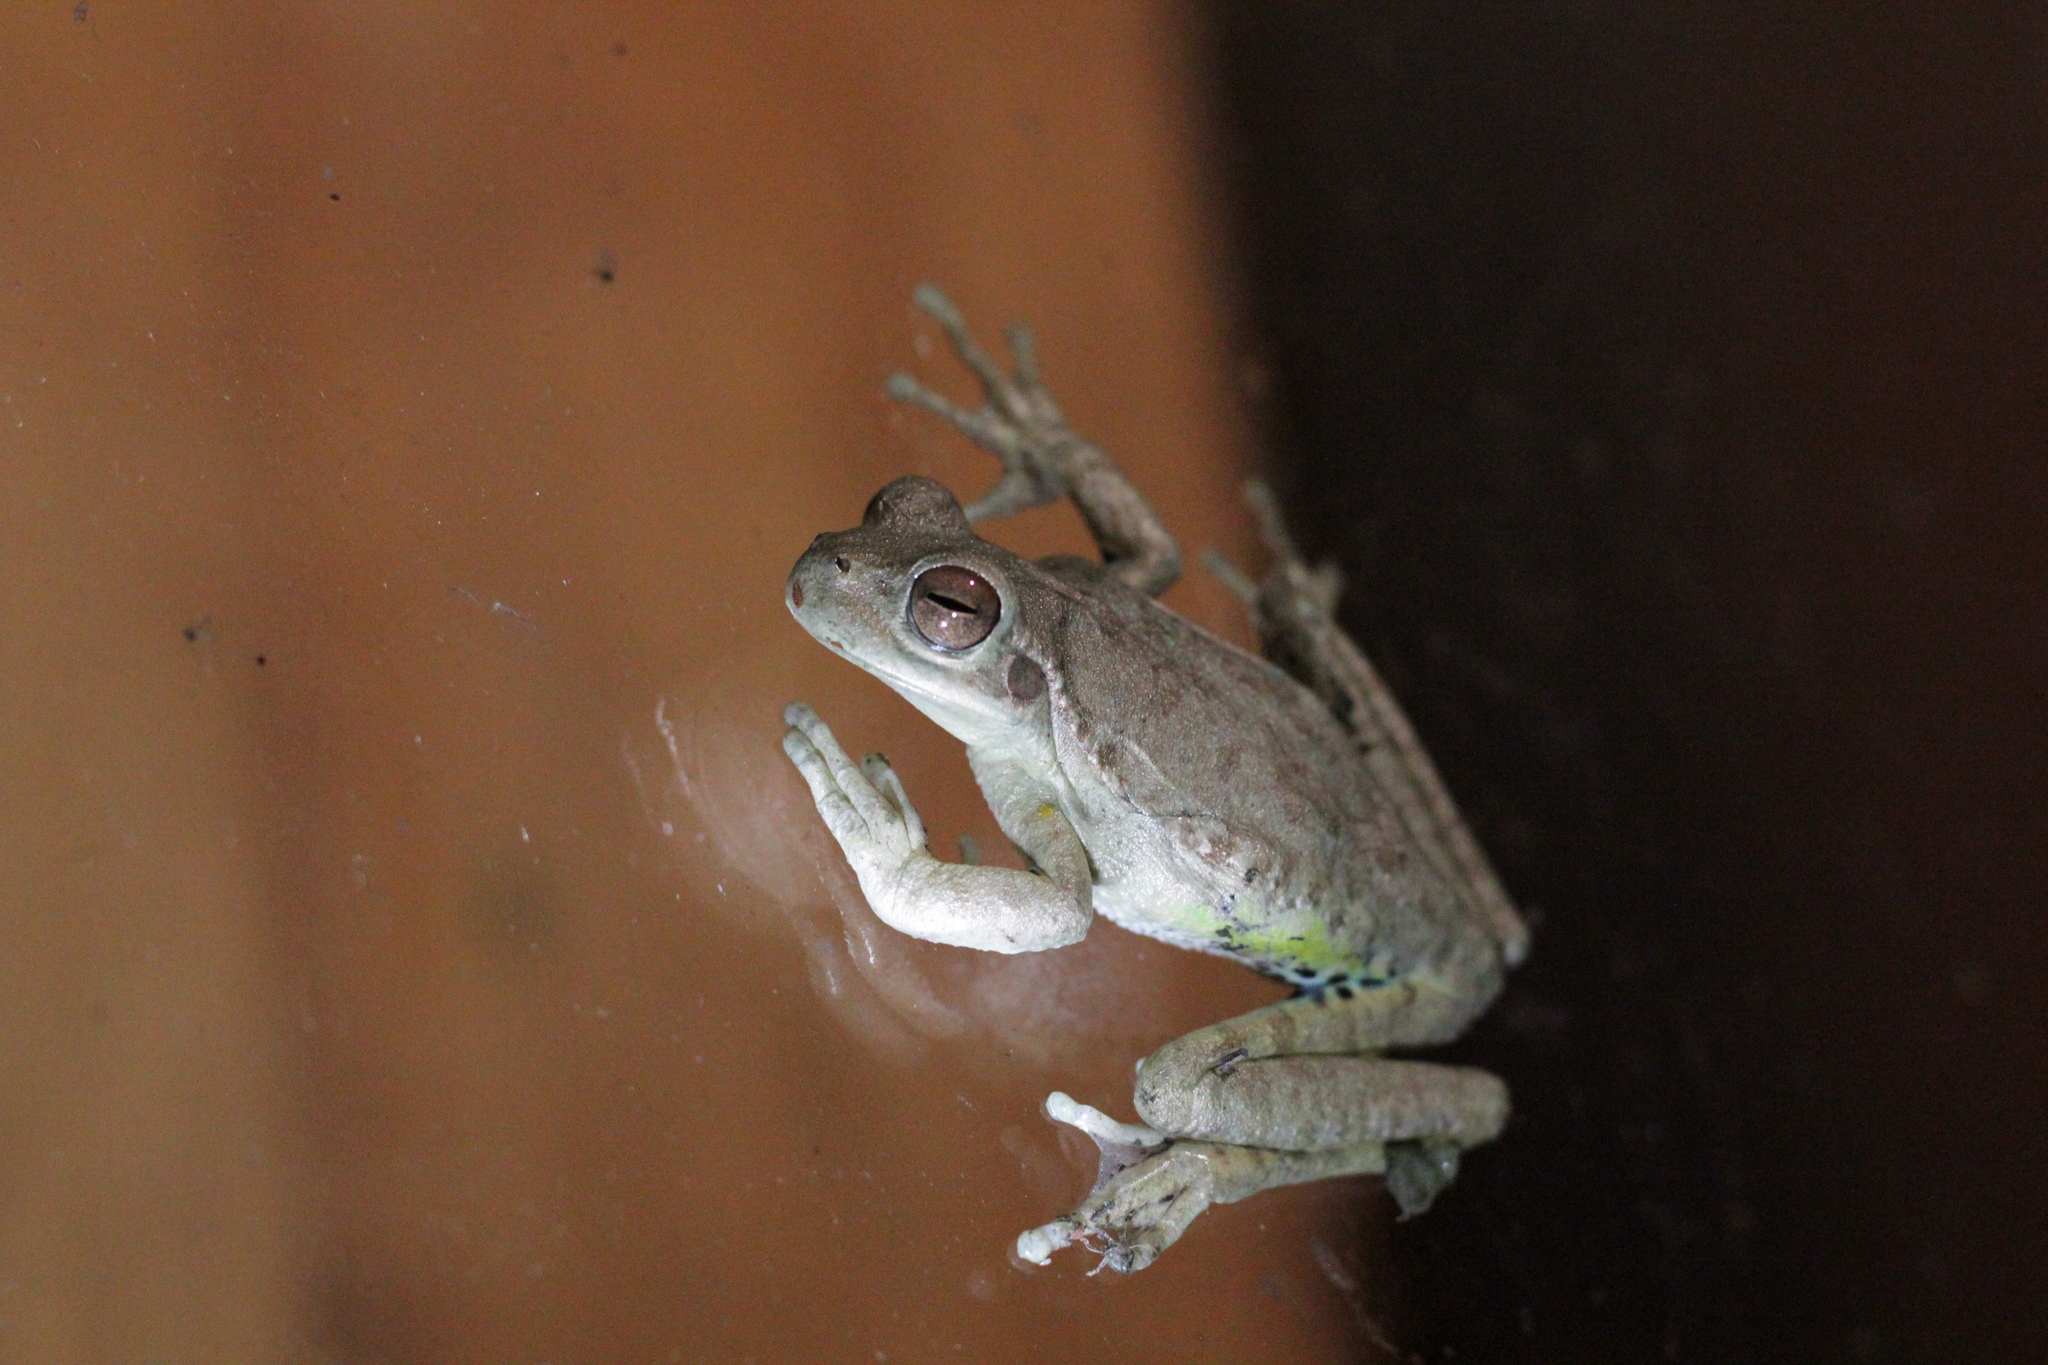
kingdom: Animalia
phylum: Chordata
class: Amphibia
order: Anura
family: Hylidae
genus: Boana
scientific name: Boana riojana
